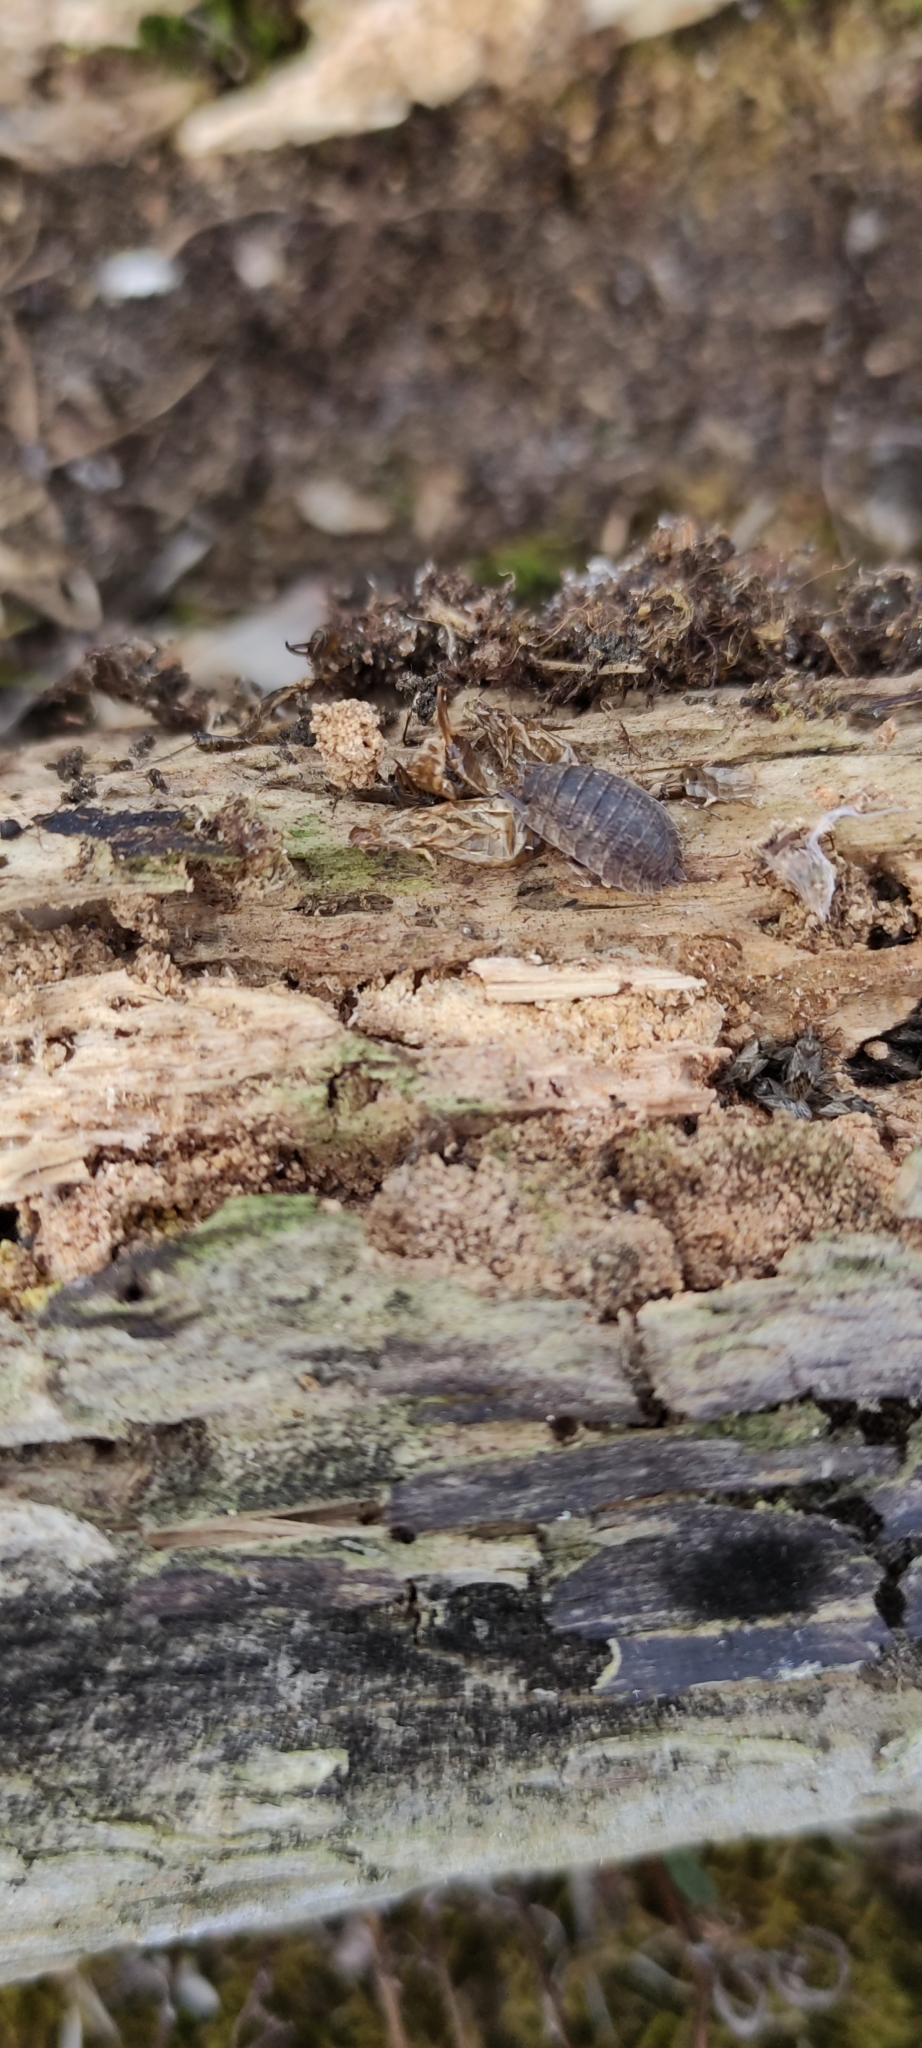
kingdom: Animalia
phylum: Arthropoda
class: Malacostraca
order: Isopoda
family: Porcellionidae
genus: Porcellio
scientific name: Porcellio scaber
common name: Common rough woodlouse
